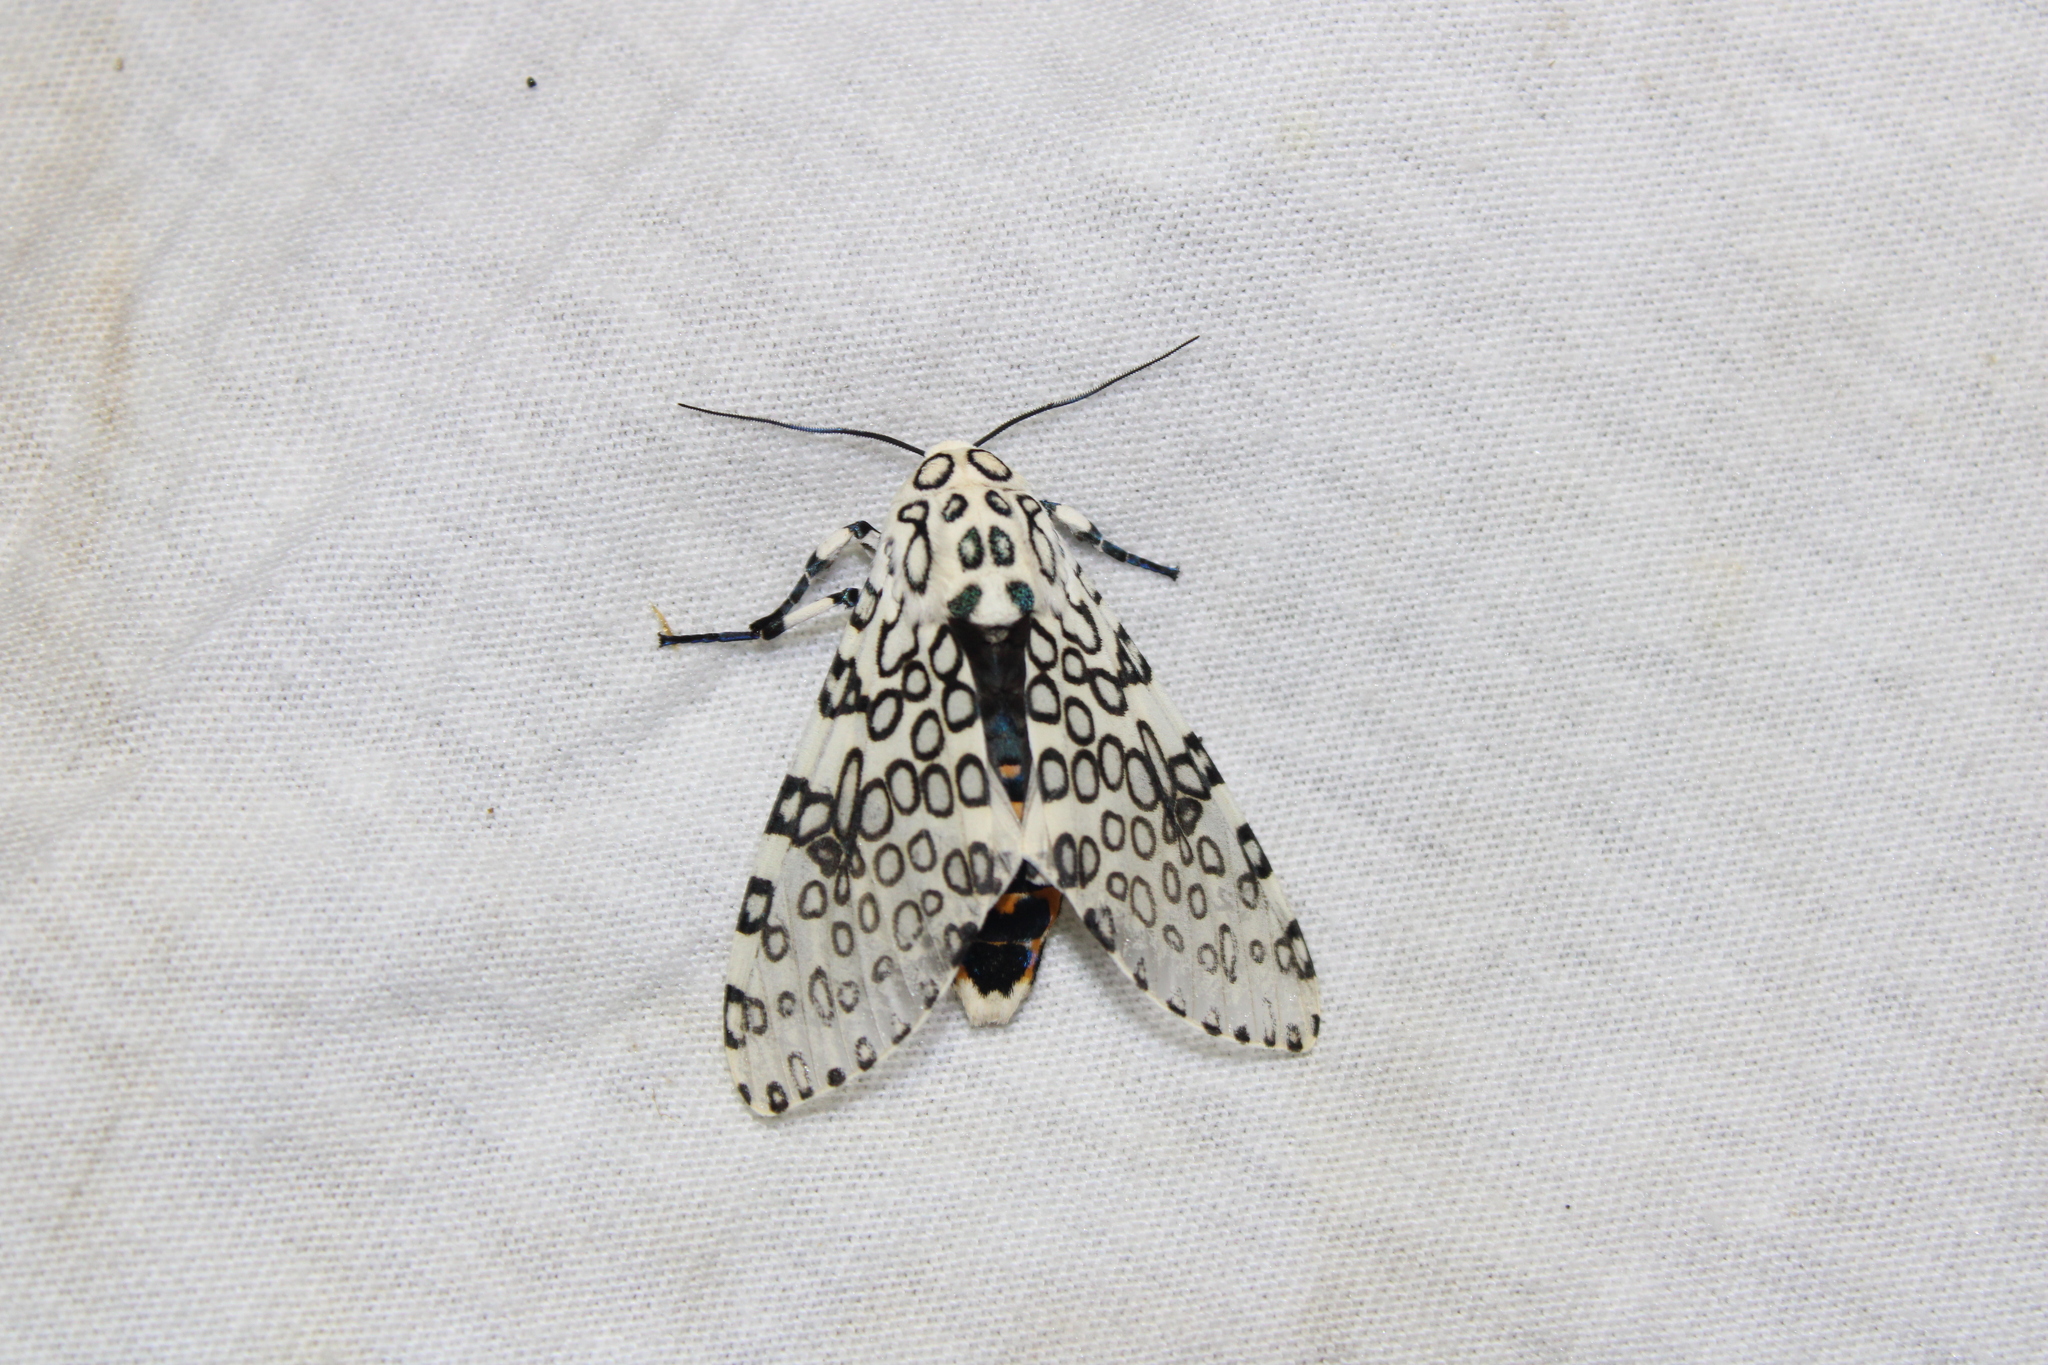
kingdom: Animalia
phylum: Arthropoda
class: Insecta
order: Lepidoptera
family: Erebidae
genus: Hypercompe
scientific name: Hypercompe scribonia
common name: Giant leopard moth
